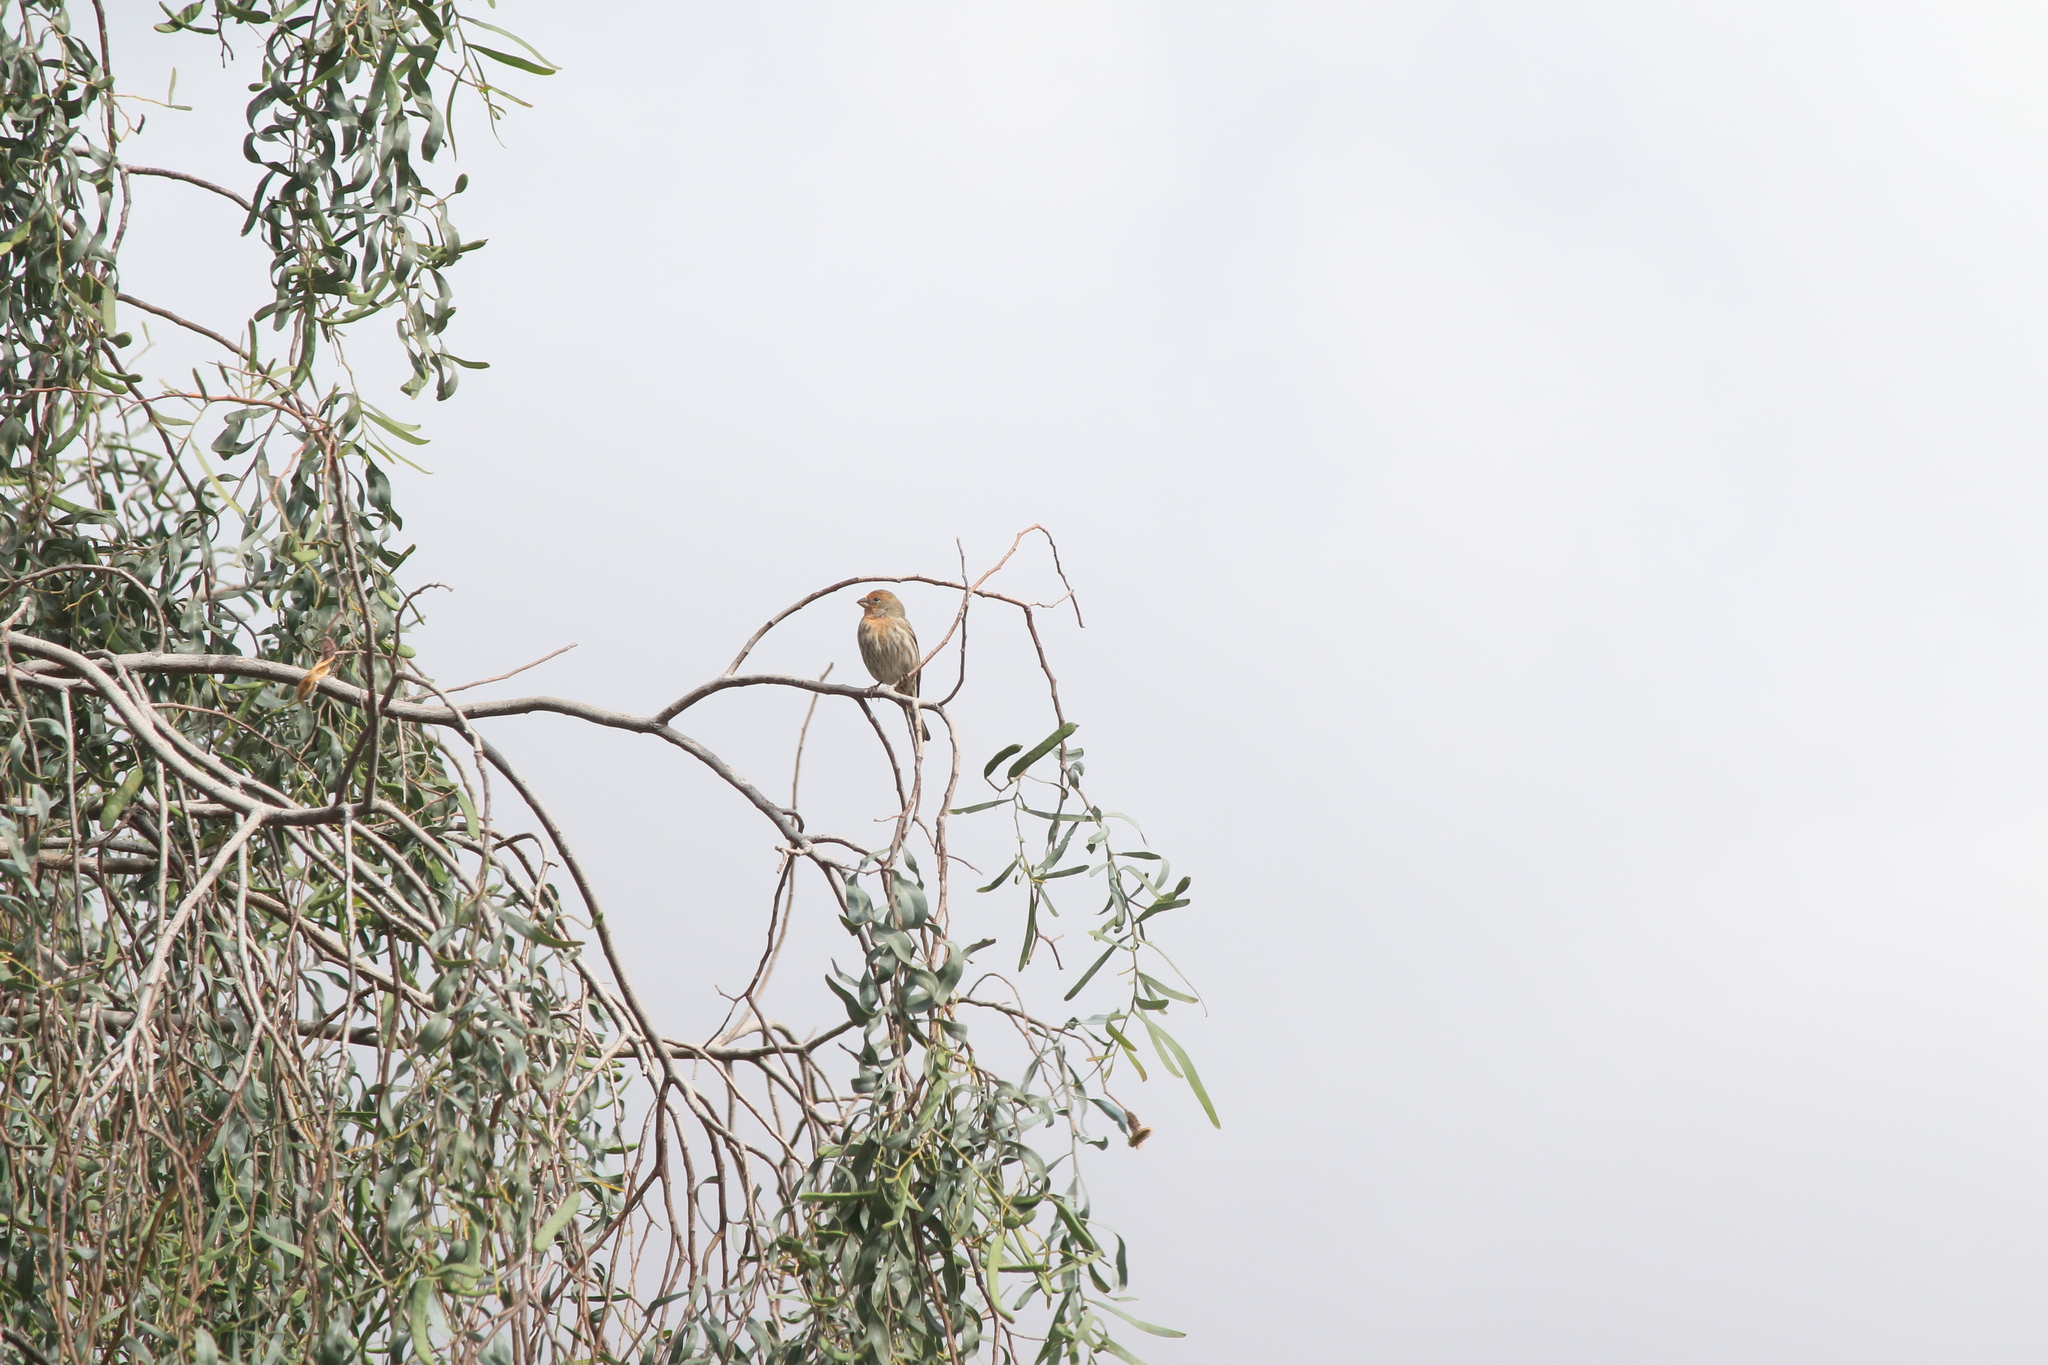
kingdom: Animalia
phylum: Chordata
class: Aves
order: Passeriformes
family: Fringillidae
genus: Haemorhous
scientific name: Haemorhous mexicanus
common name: House finch
